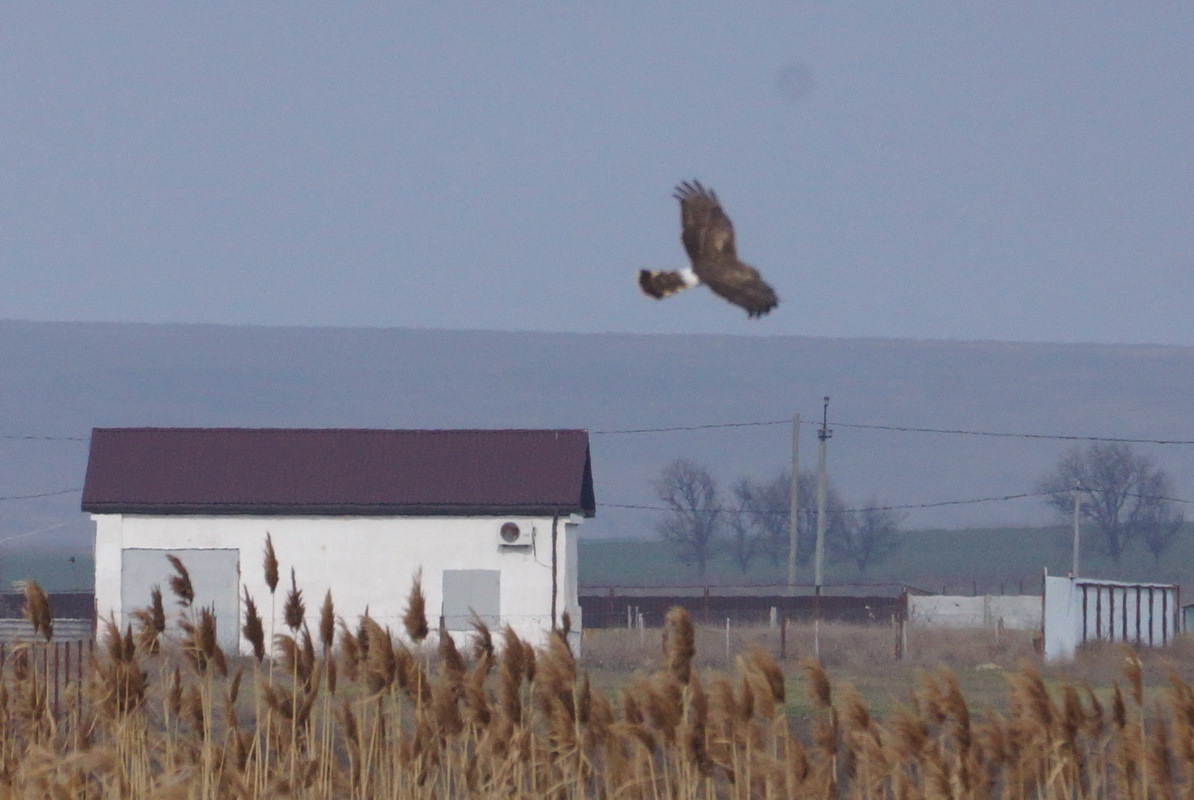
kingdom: Animalia
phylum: Chordata
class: Aves
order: Accipitriformes
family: Accipitridae
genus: Circus
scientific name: Circus cyaneus
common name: Hen harrier
